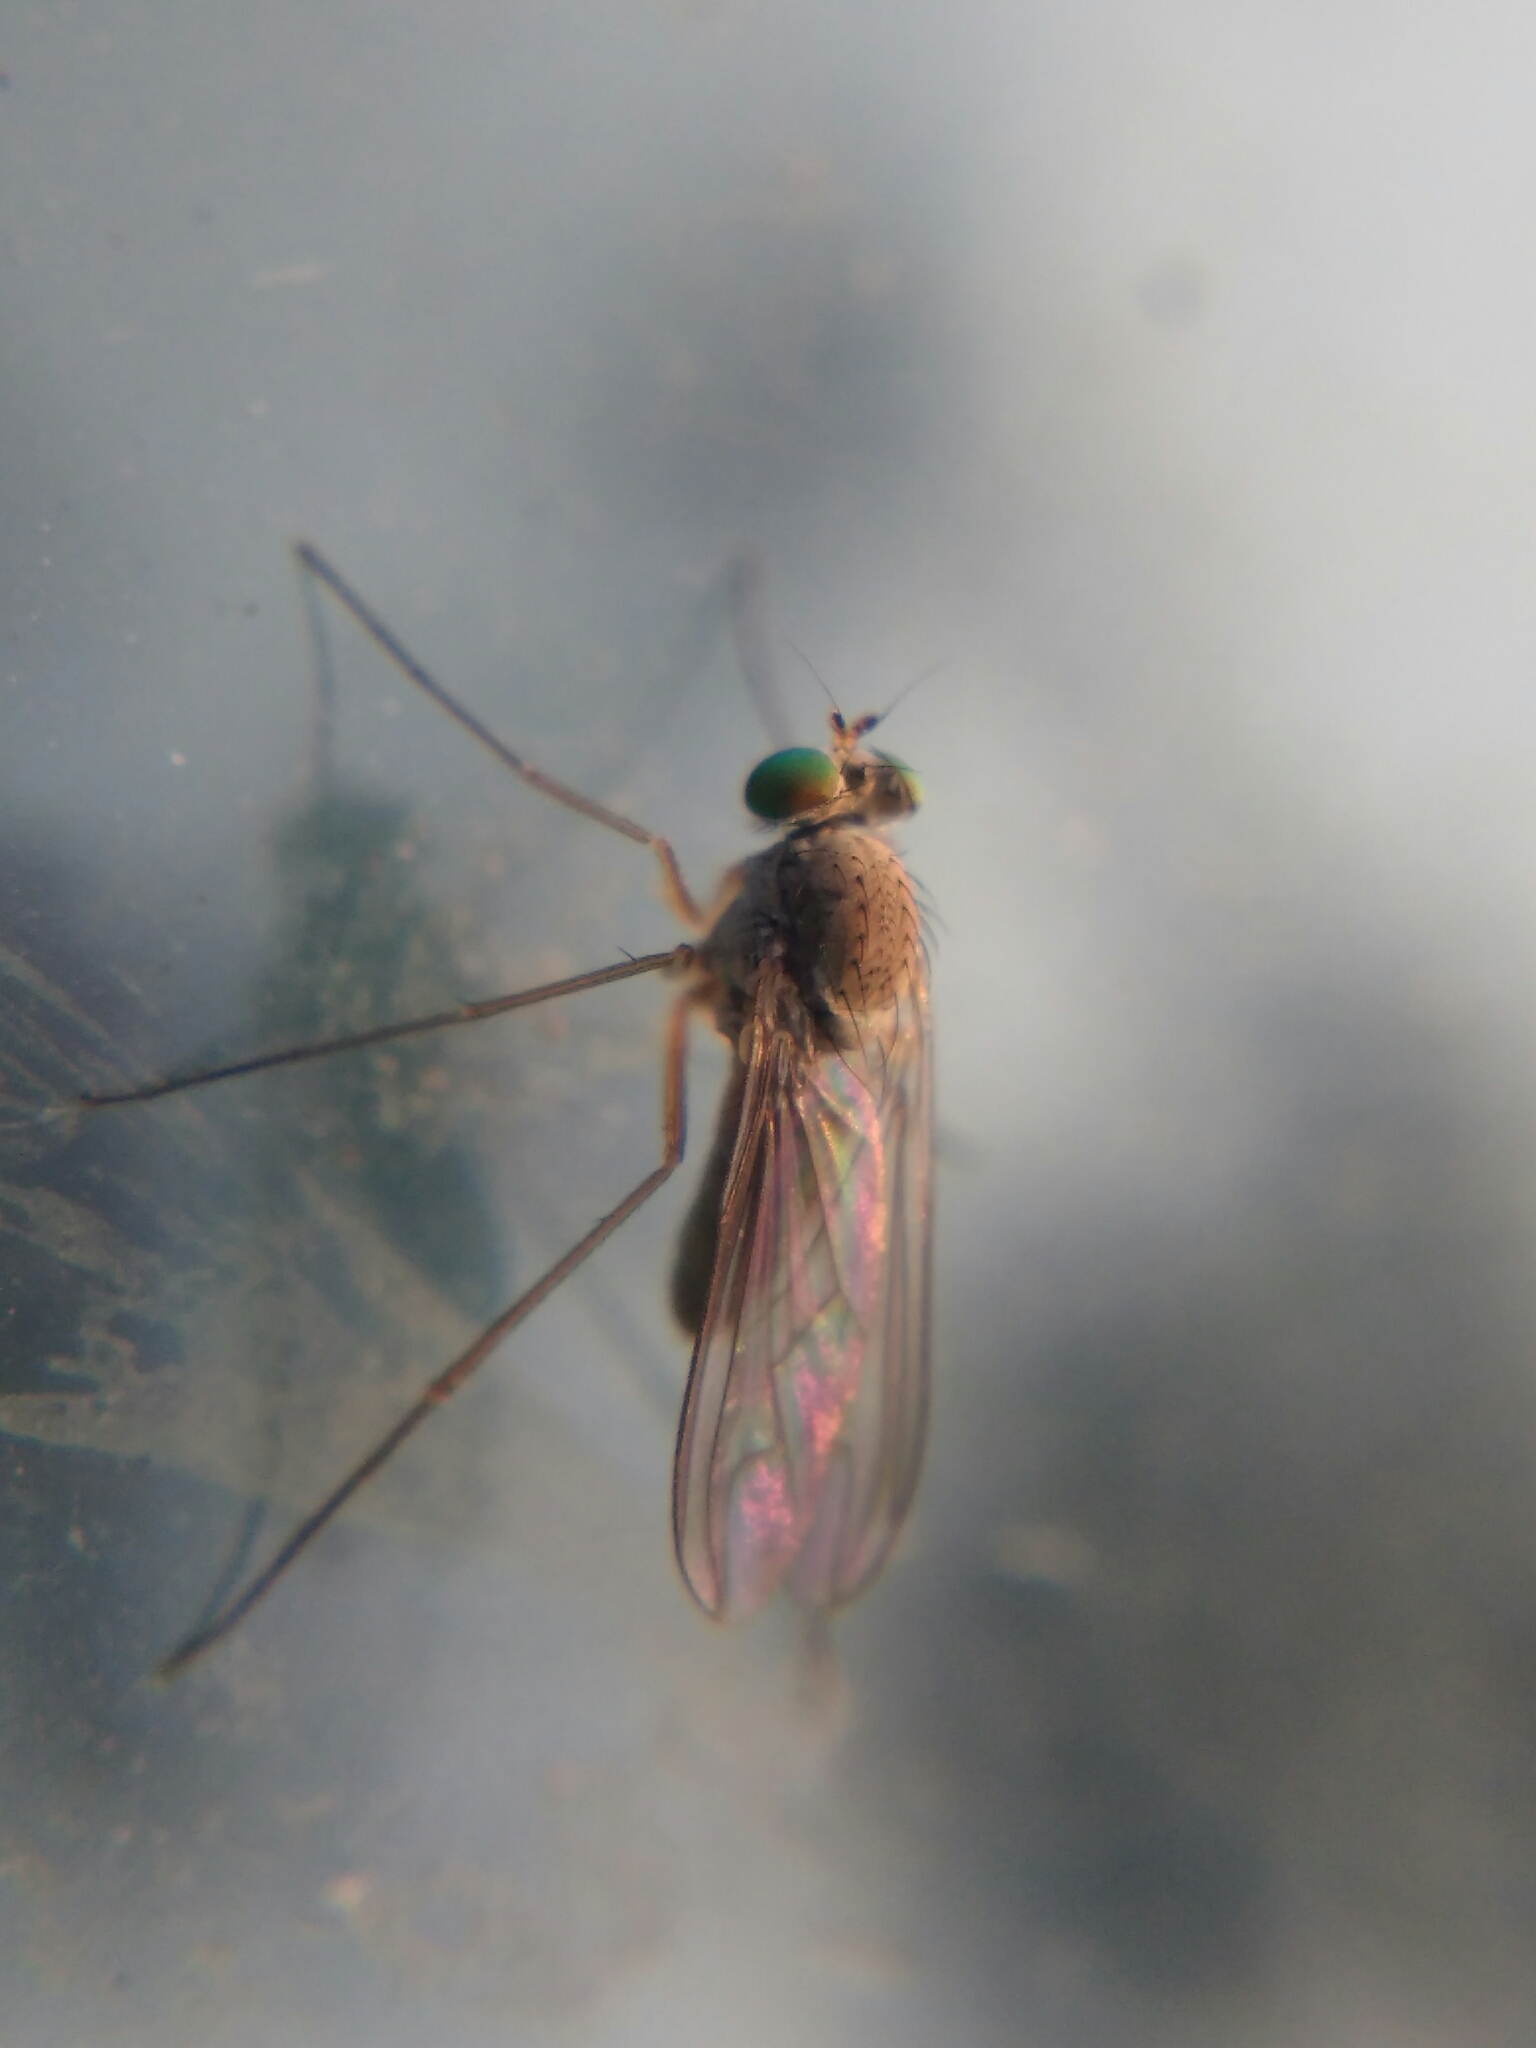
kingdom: Animalia
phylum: Arthropoda
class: Insecta
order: Diptera
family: Dolichopodidae
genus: Sciapus
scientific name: Sciapus
